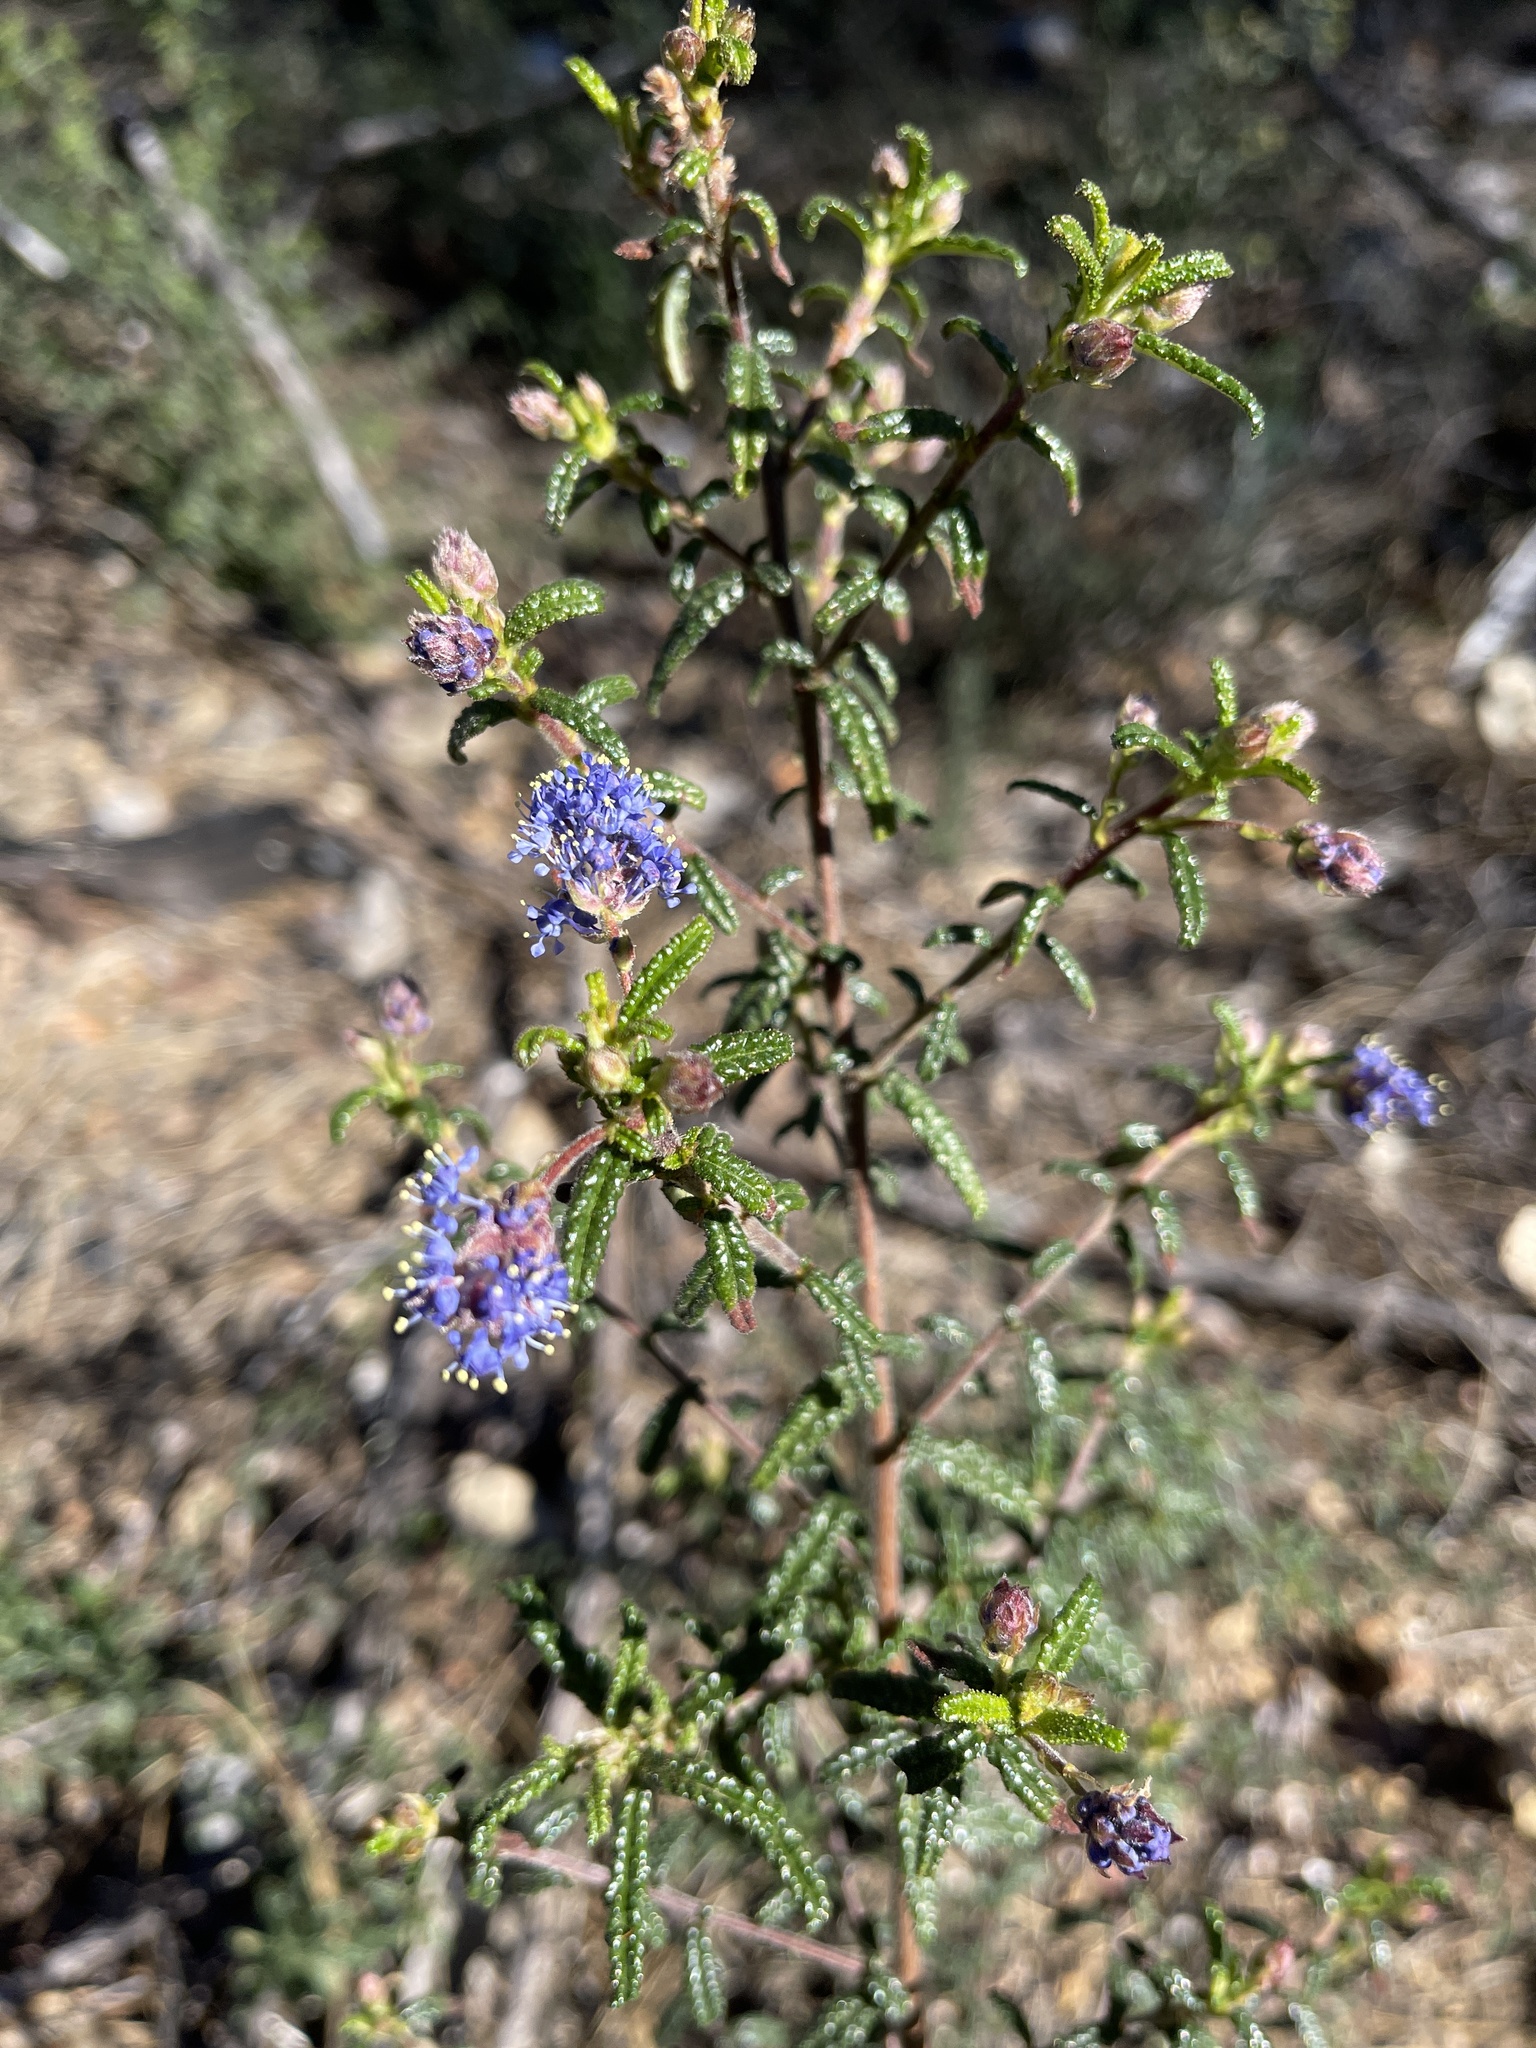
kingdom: Plantae
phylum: Tracheophyta
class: Magnoliopsida
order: Rosales
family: Rhamnaceae
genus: Ceanothus
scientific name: Ceanothus papillosus
